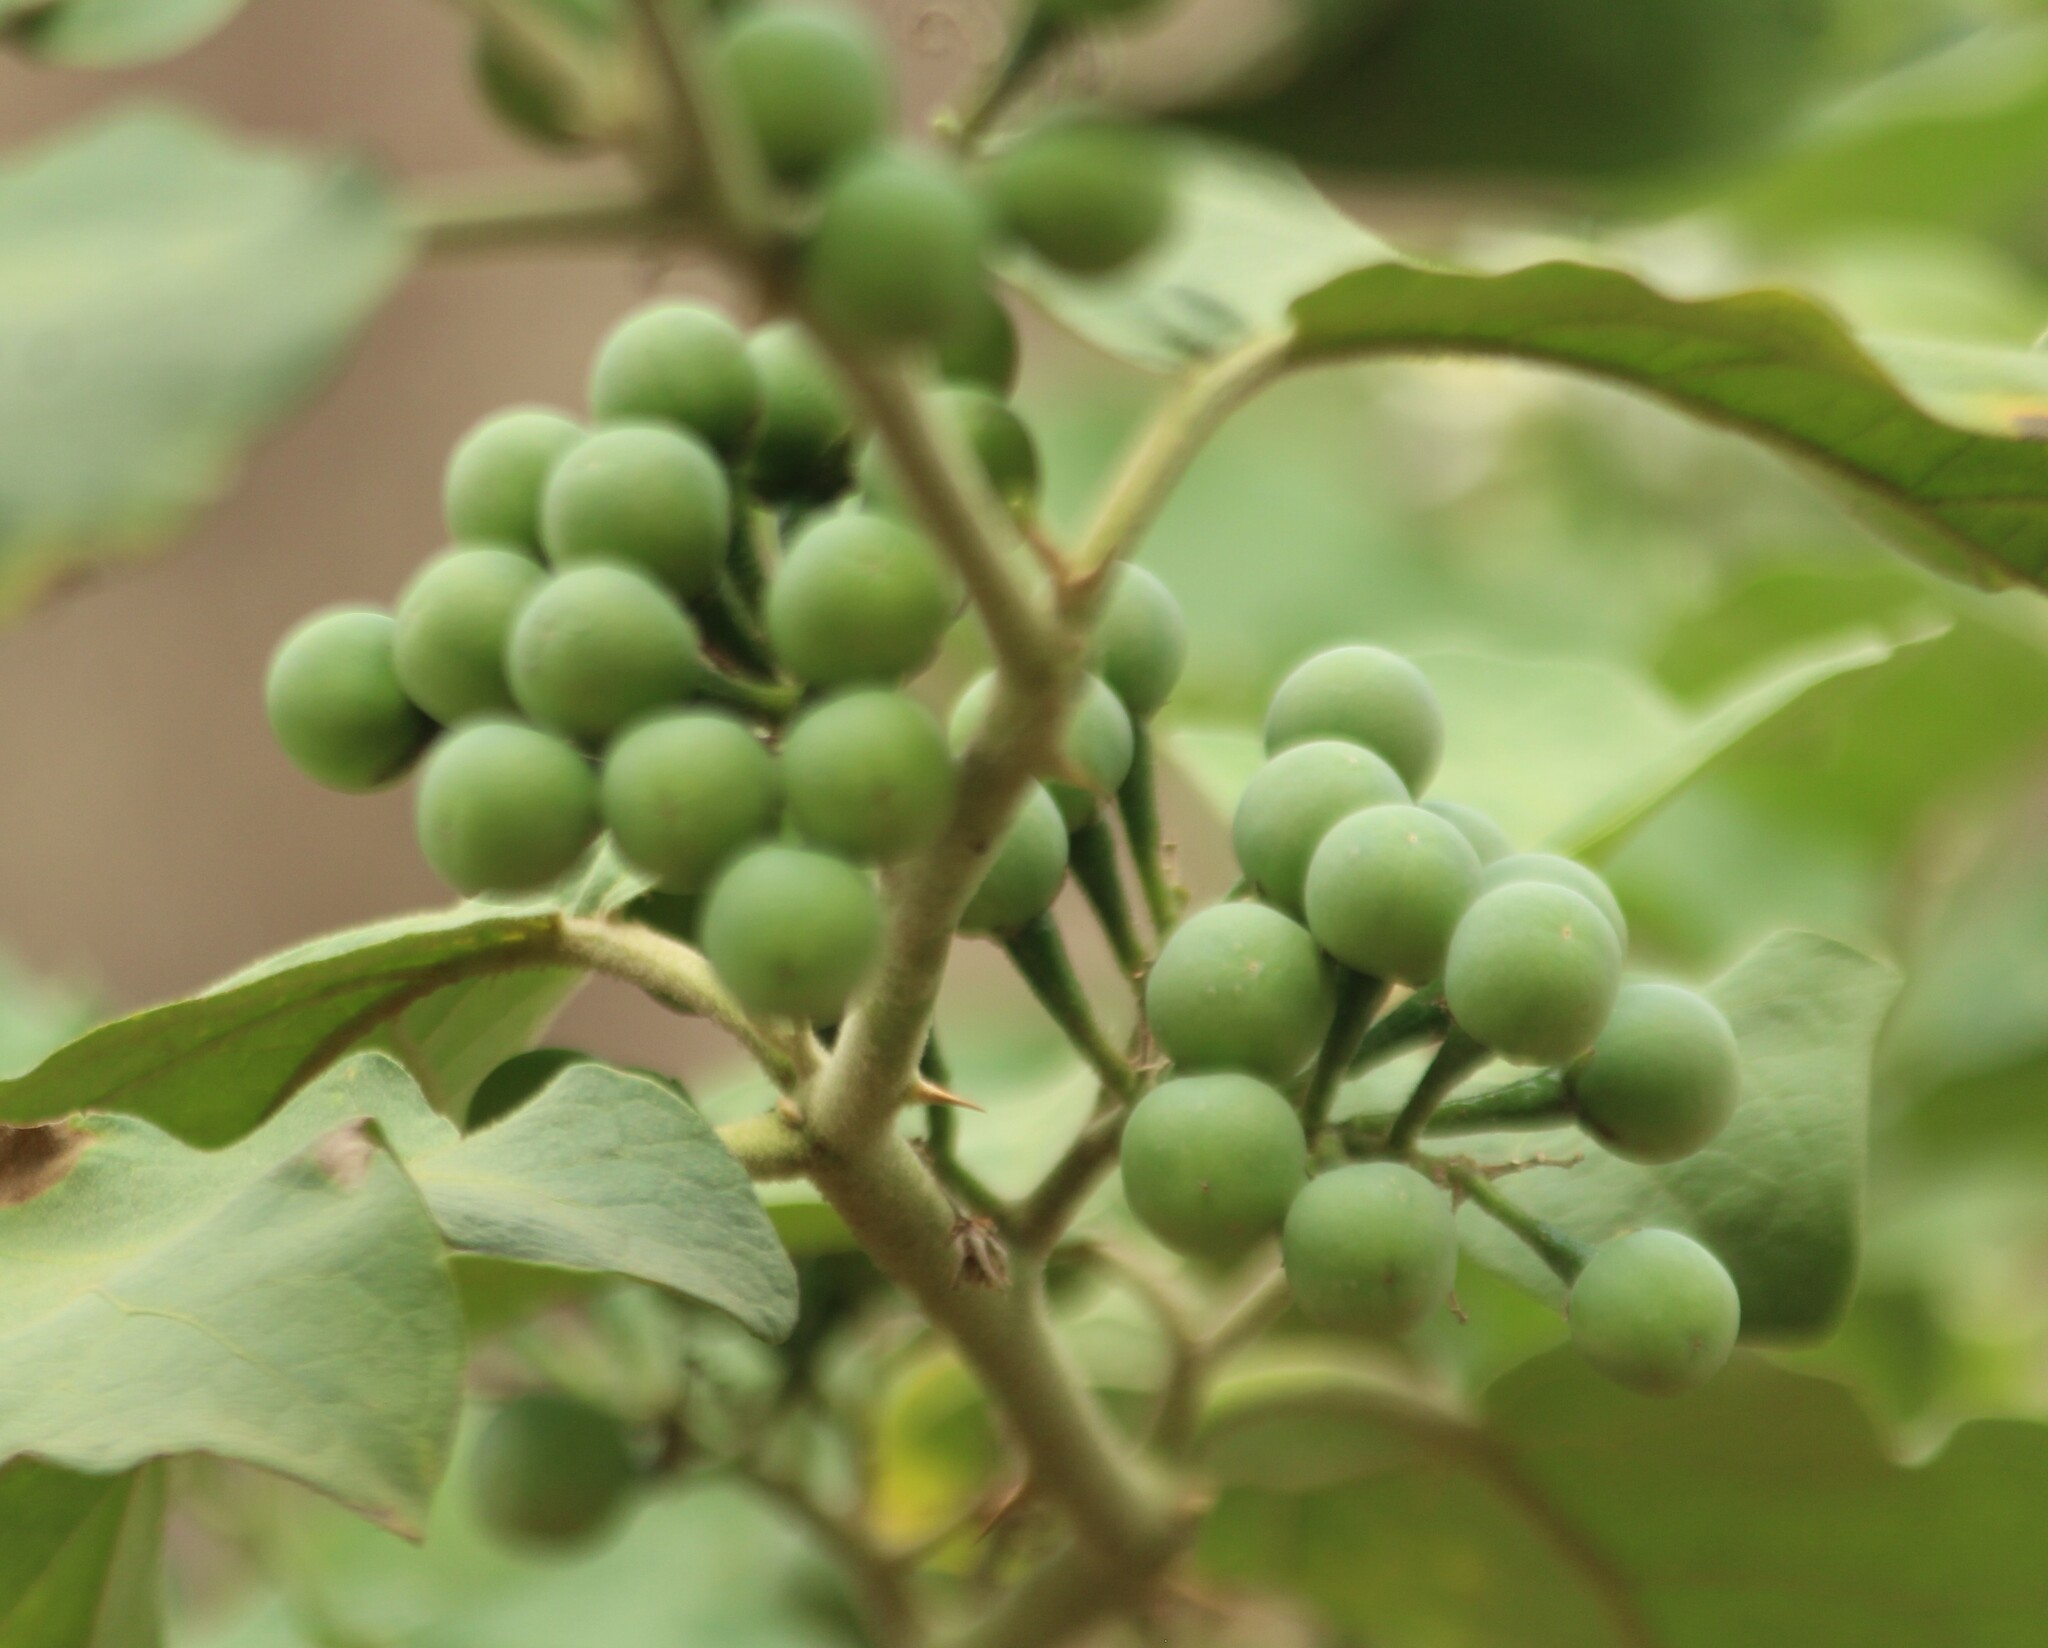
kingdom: Plantae
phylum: Tracheophyta
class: Magnoliopsida
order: Solanales
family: Solanaceae
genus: Solanum
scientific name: Solanum torvum
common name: Turkey berry
